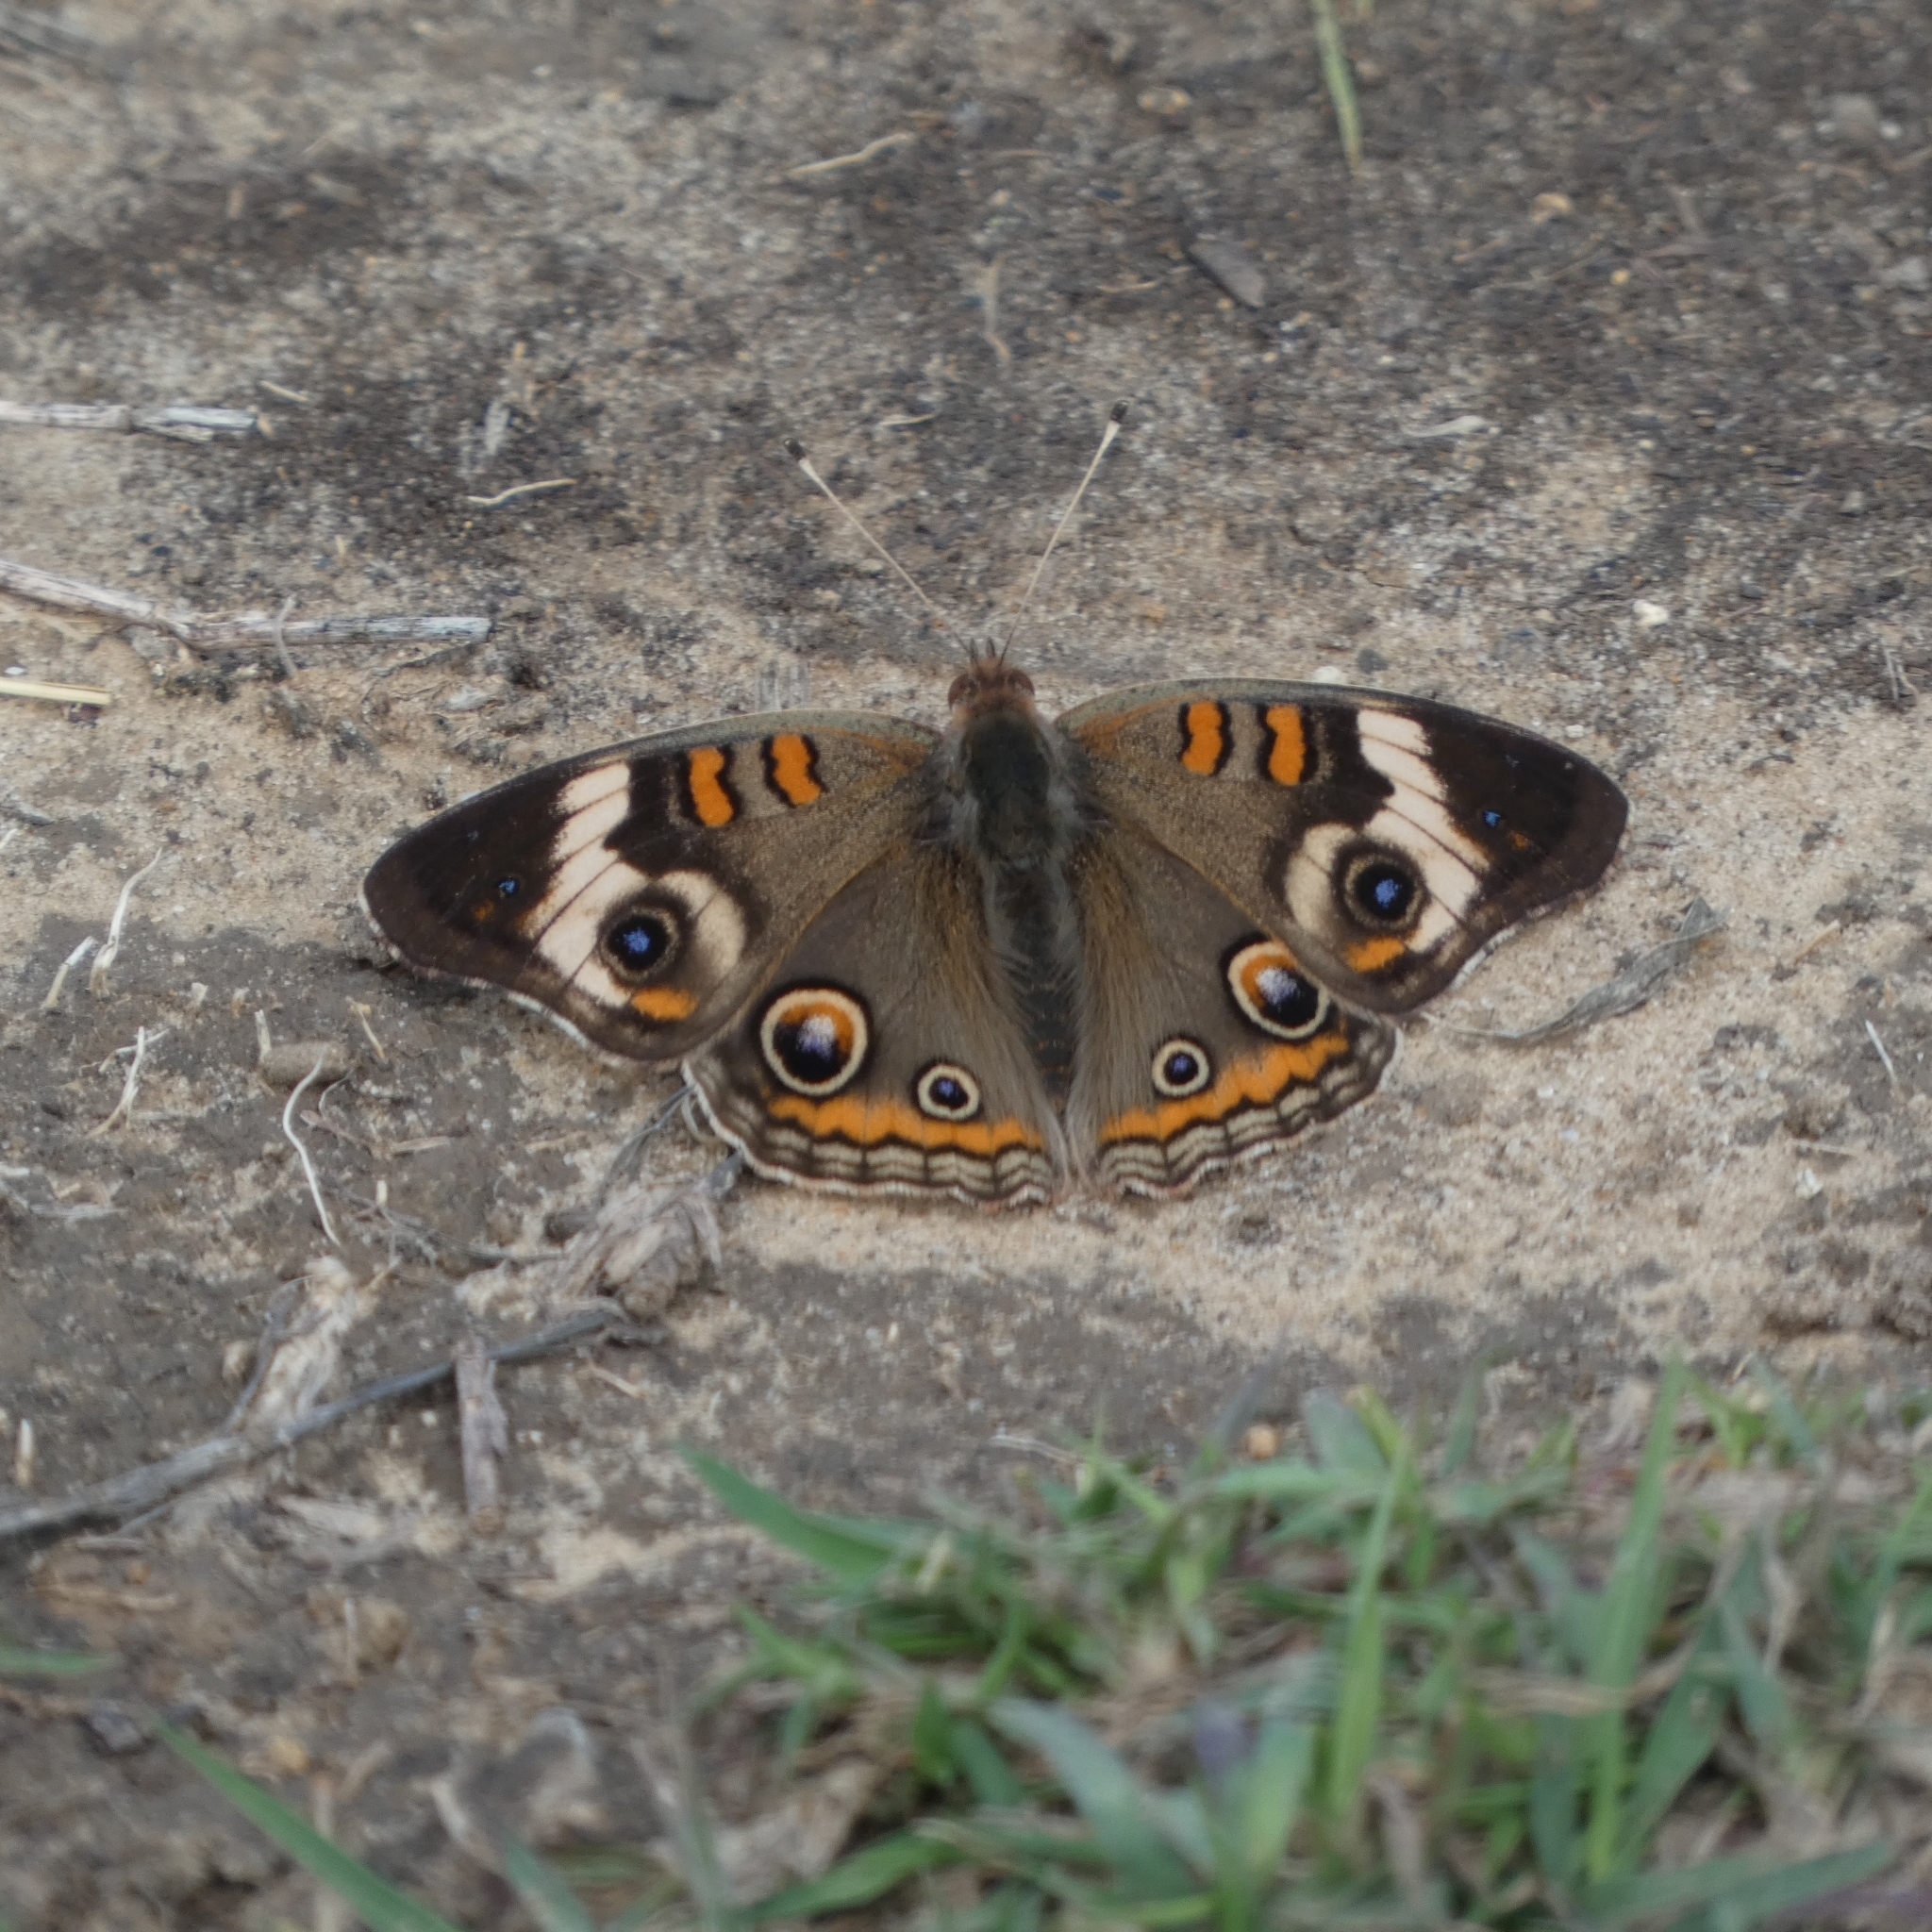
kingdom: Animalia
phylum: Arthropoda
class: Insecta
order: Lepidoptera
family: Nymphalidae
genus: Junonia
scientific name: Junonia coenia
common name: Common buckeye
